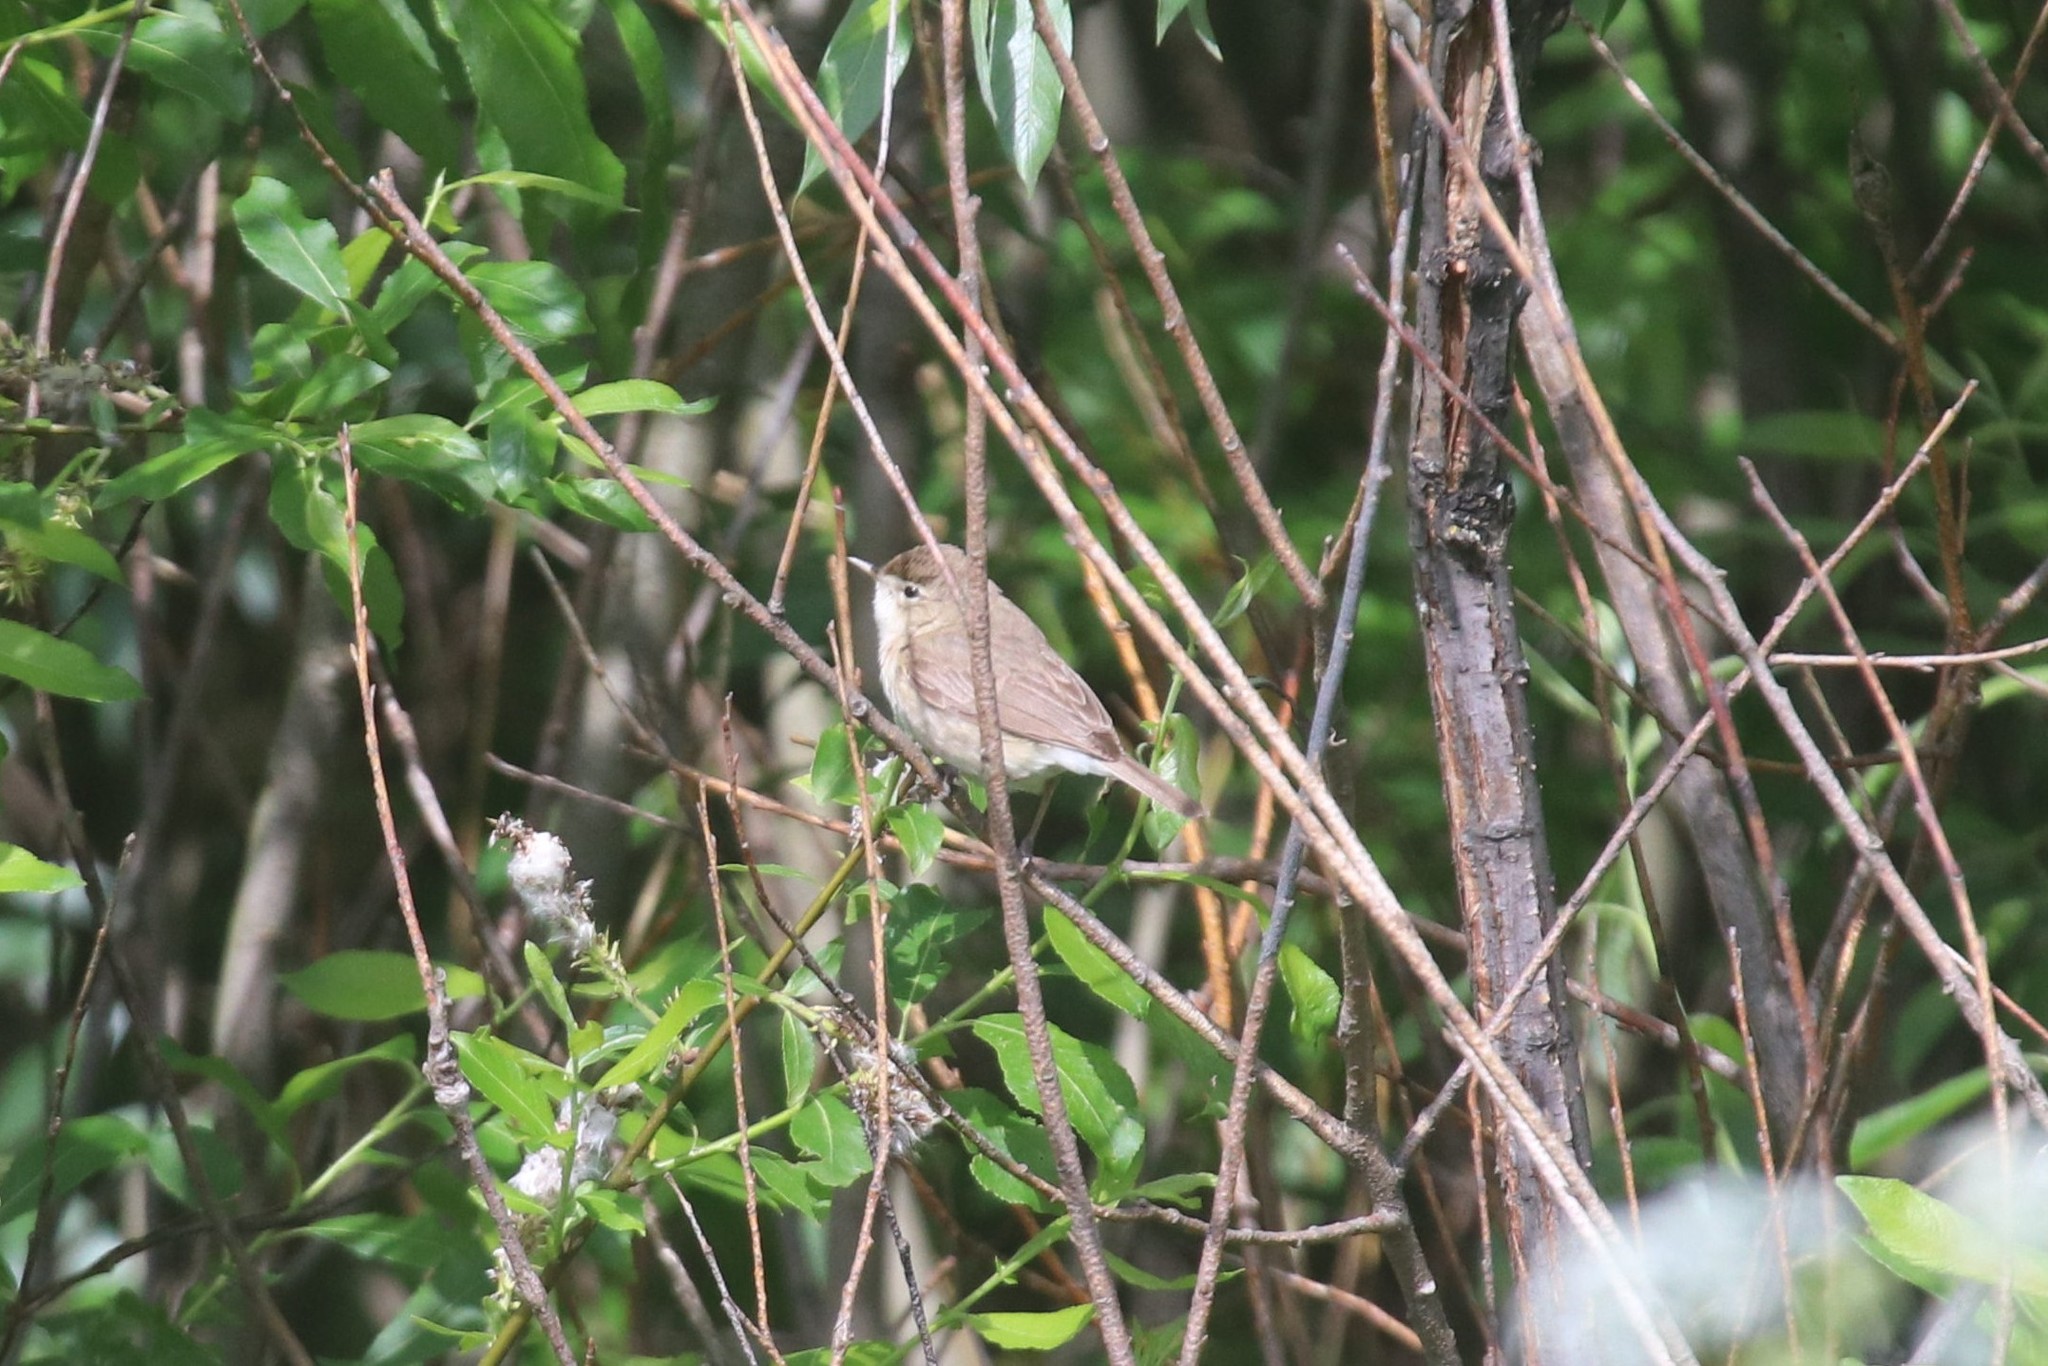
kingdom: Animalia
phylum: Chordata
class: Aves
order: Passeriformes
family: Acrocephalidae
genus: Iduna
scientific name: Iduna caligata
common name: Booted warbler
